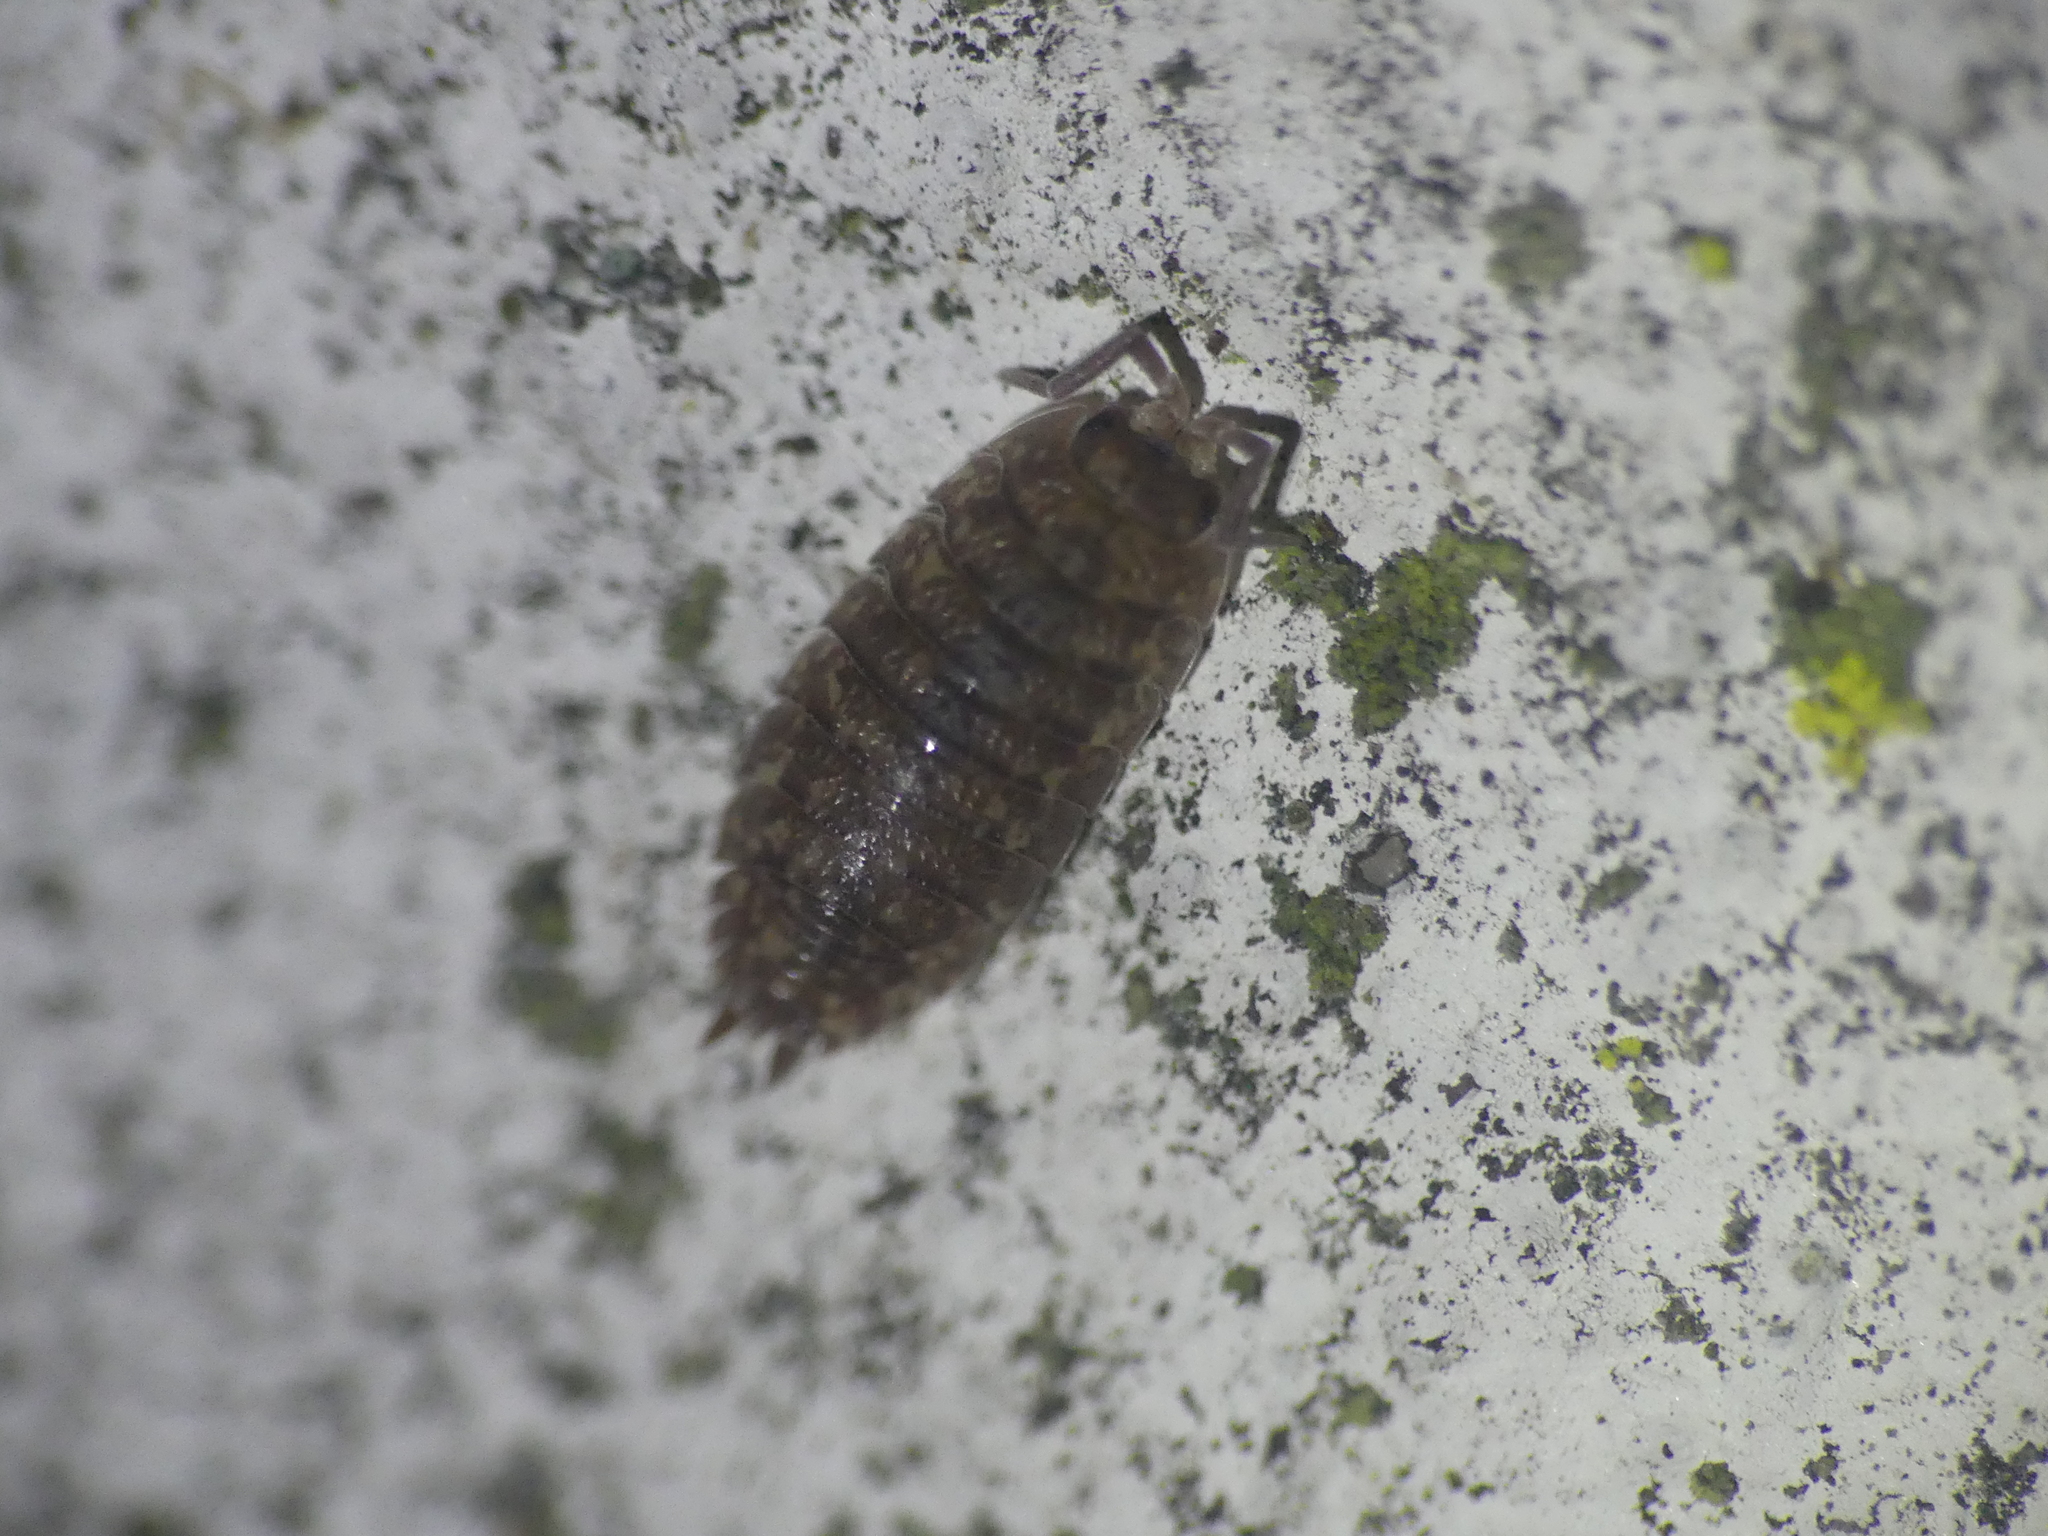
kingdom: Animalia
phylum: Arthropoda
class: Malacostraca
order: Isopoda
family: Porcellionidae
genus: Porcellio
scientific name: Porcellio scaber
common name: Common rough woodlouse
